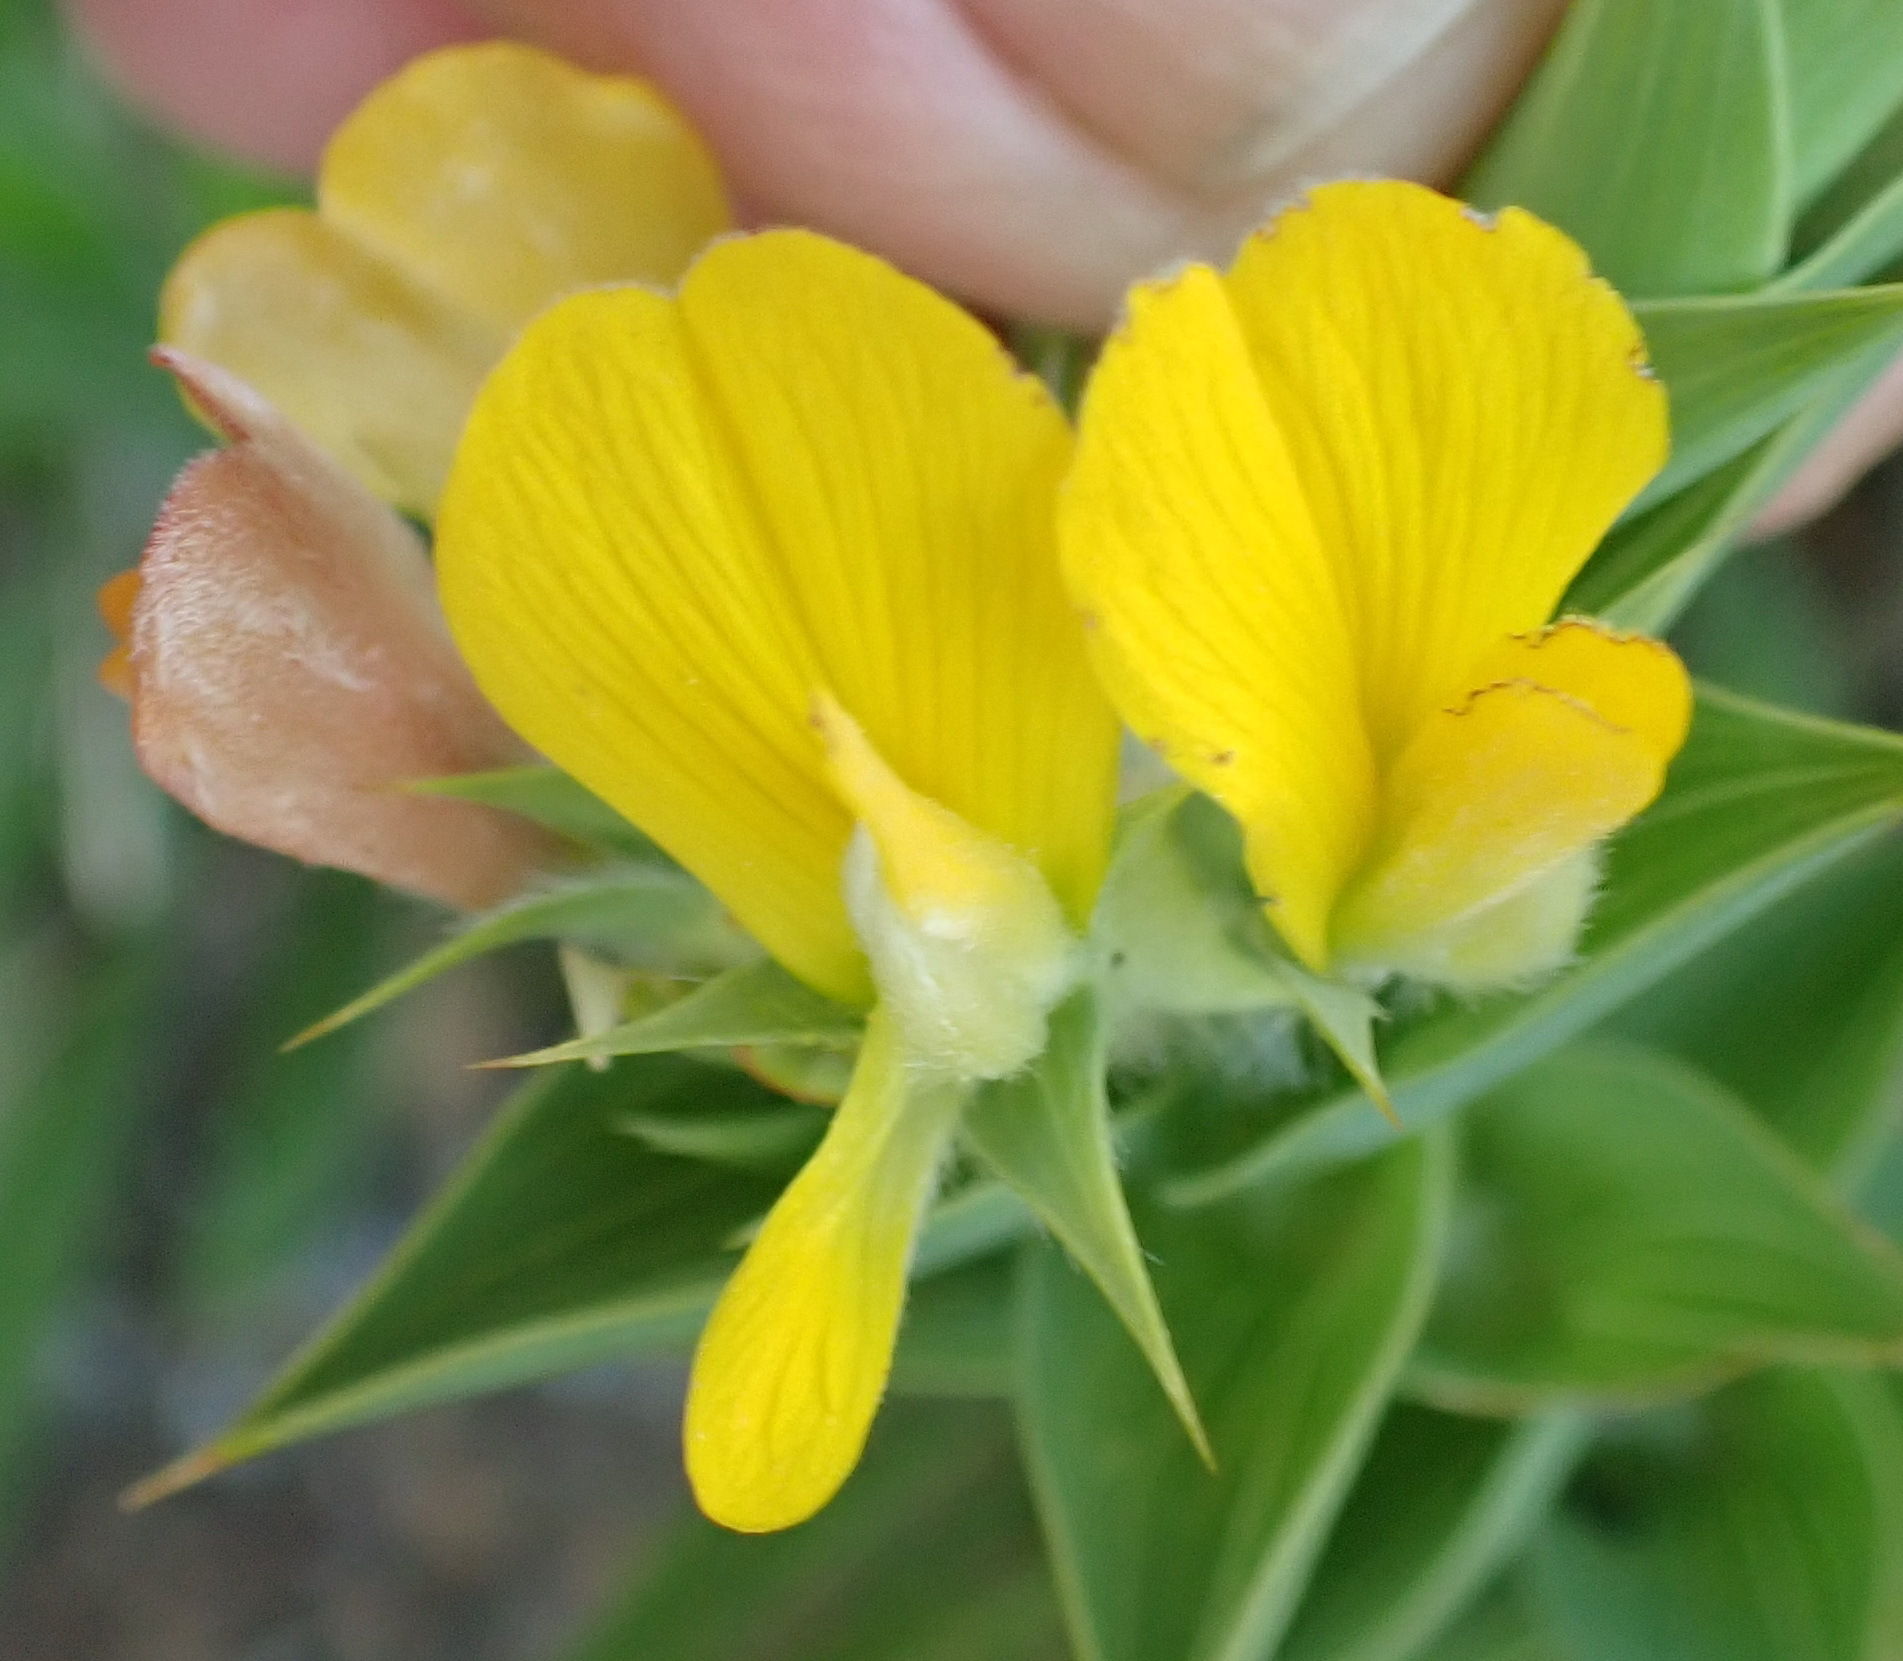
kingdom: Plantae
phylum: Tracheophyta
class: Magnoliopsida
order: Fabales
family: Fabaceae
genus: Aspalathus
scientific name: Aspalathus cordata
